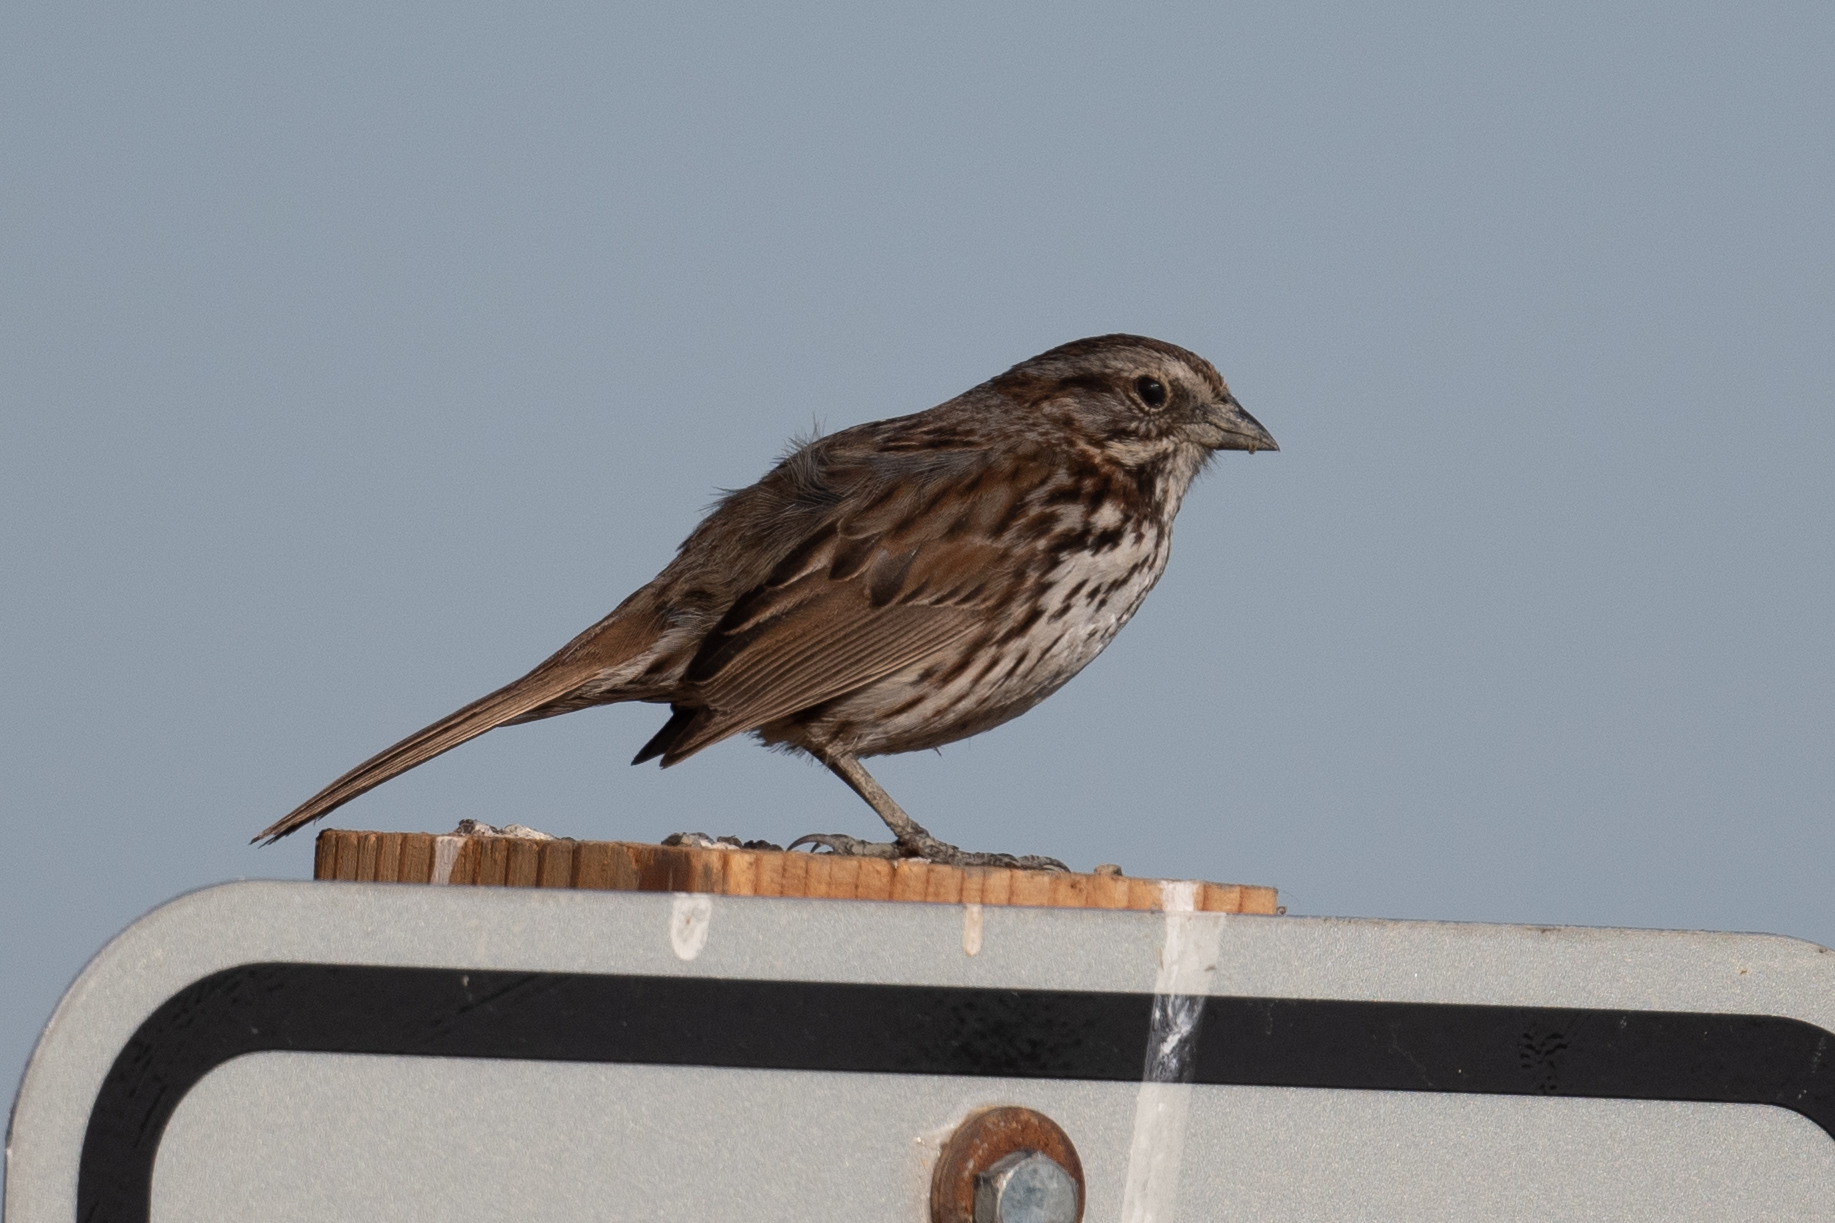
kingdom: Animalia
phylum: Chordata
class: Aves
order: Passeriformes
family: Passerellidae
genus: Melospiza
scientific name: Melospiza melodia
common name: Song sparrow
